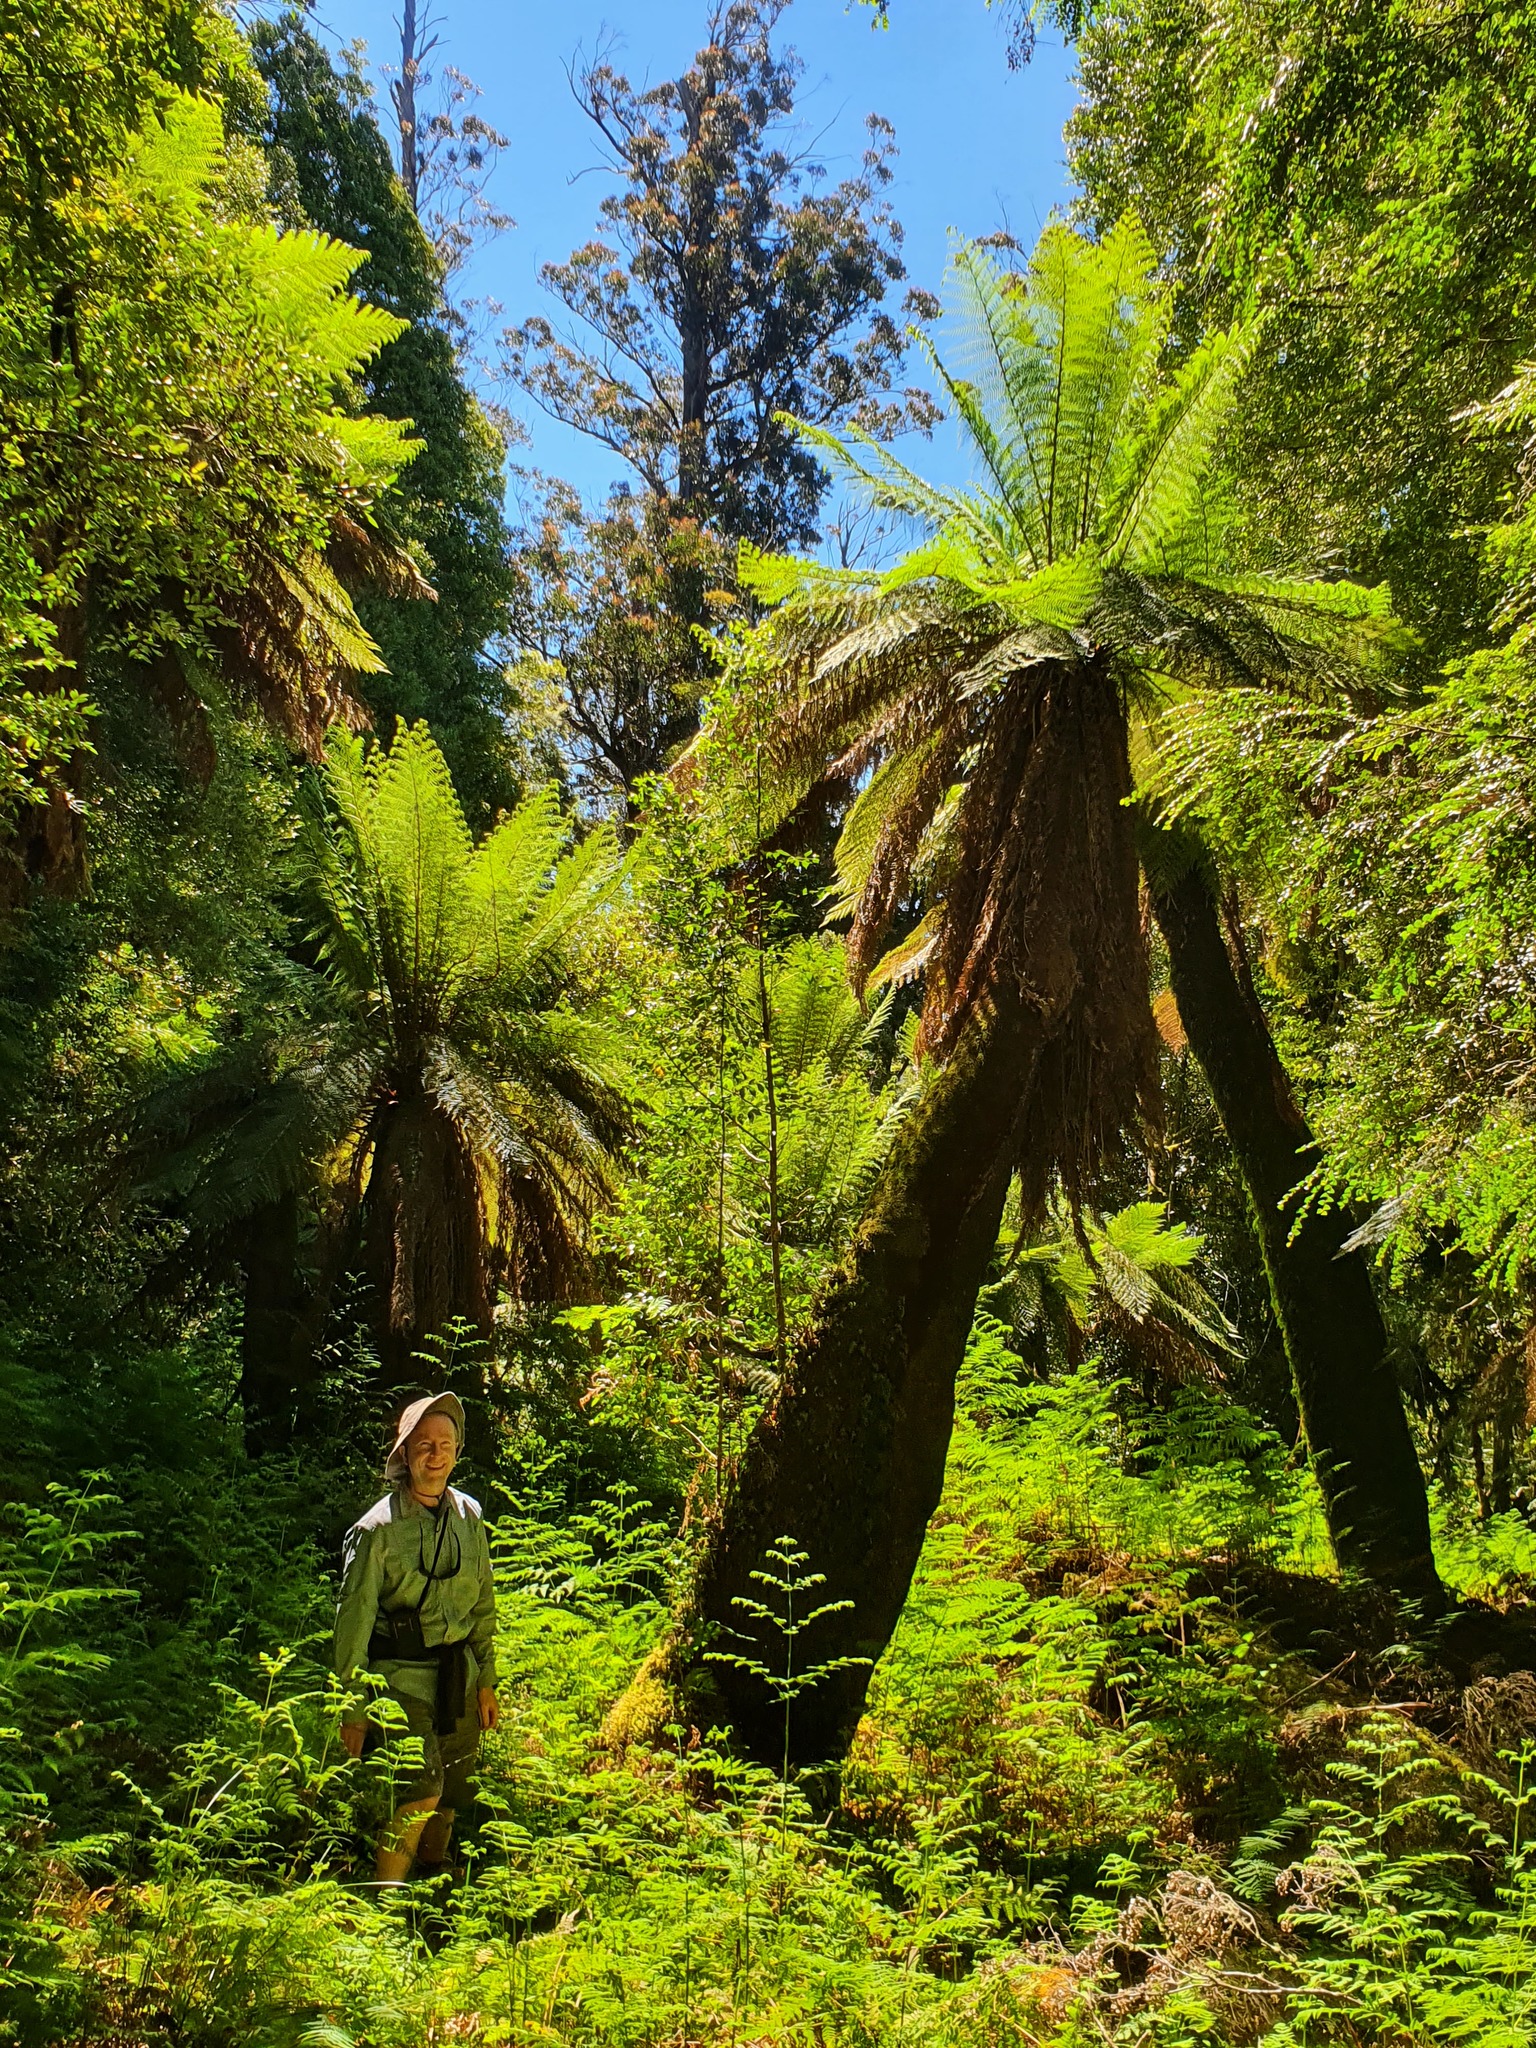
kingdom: Plantae
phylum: Tracheophyta
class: Polypodiopsida
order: Cyatheales
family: Dicksoniaceae
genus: Dicksonia
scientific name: Dicksonia antarctica
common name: Australian treefern
